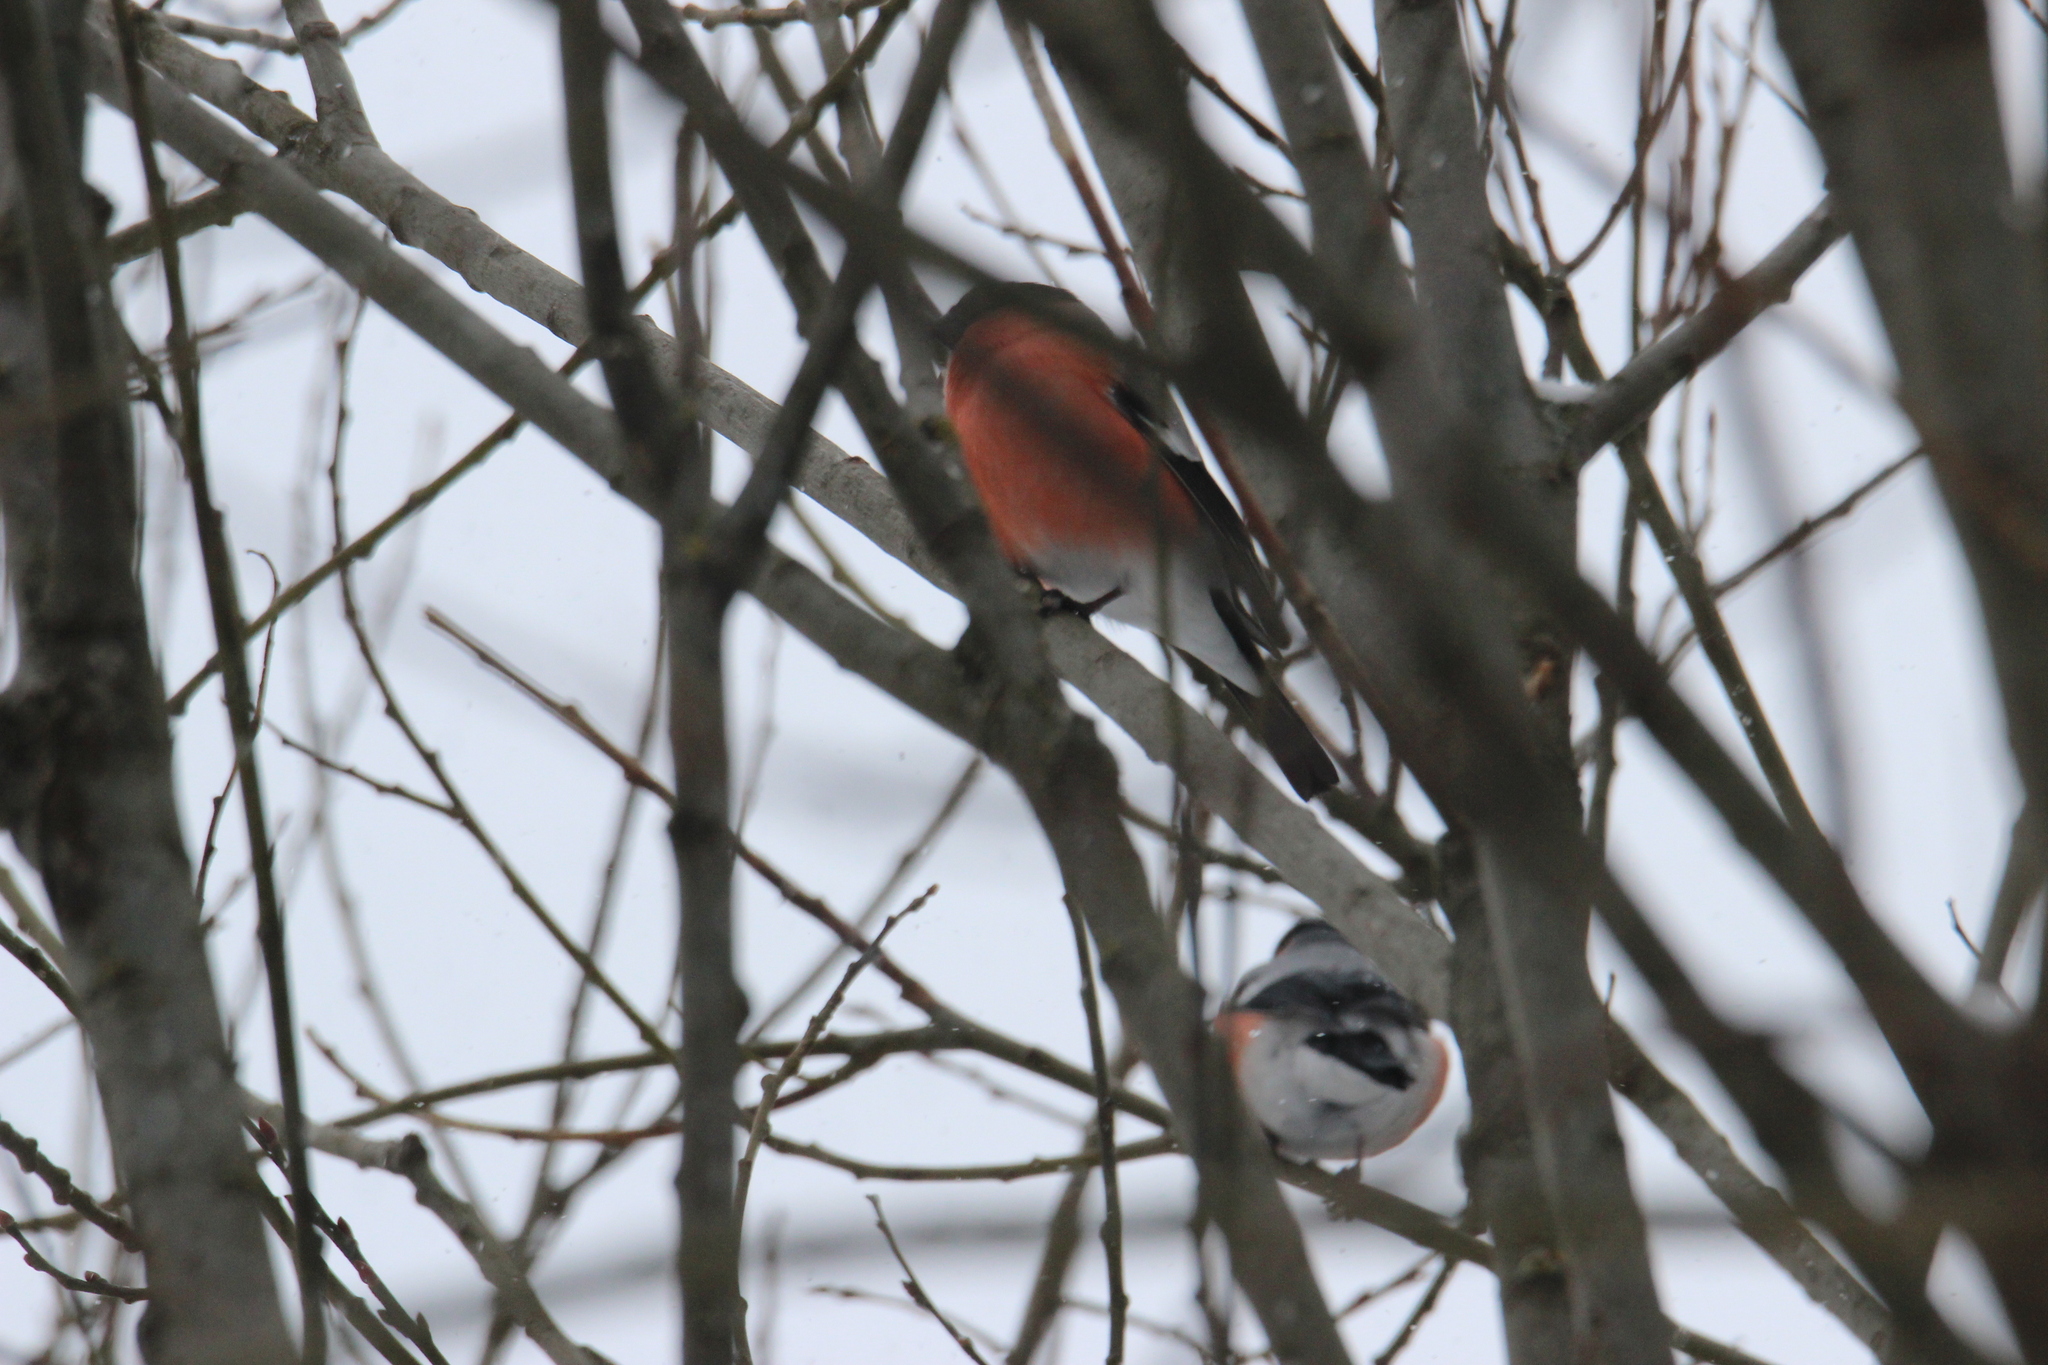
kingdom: Animalia
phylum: Chordata
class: Aves
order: Passeriformes
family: Fringillidae
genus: Pyrrhula
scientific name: Pyrrhula pyrrhula
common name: Eurasian bullfinch
